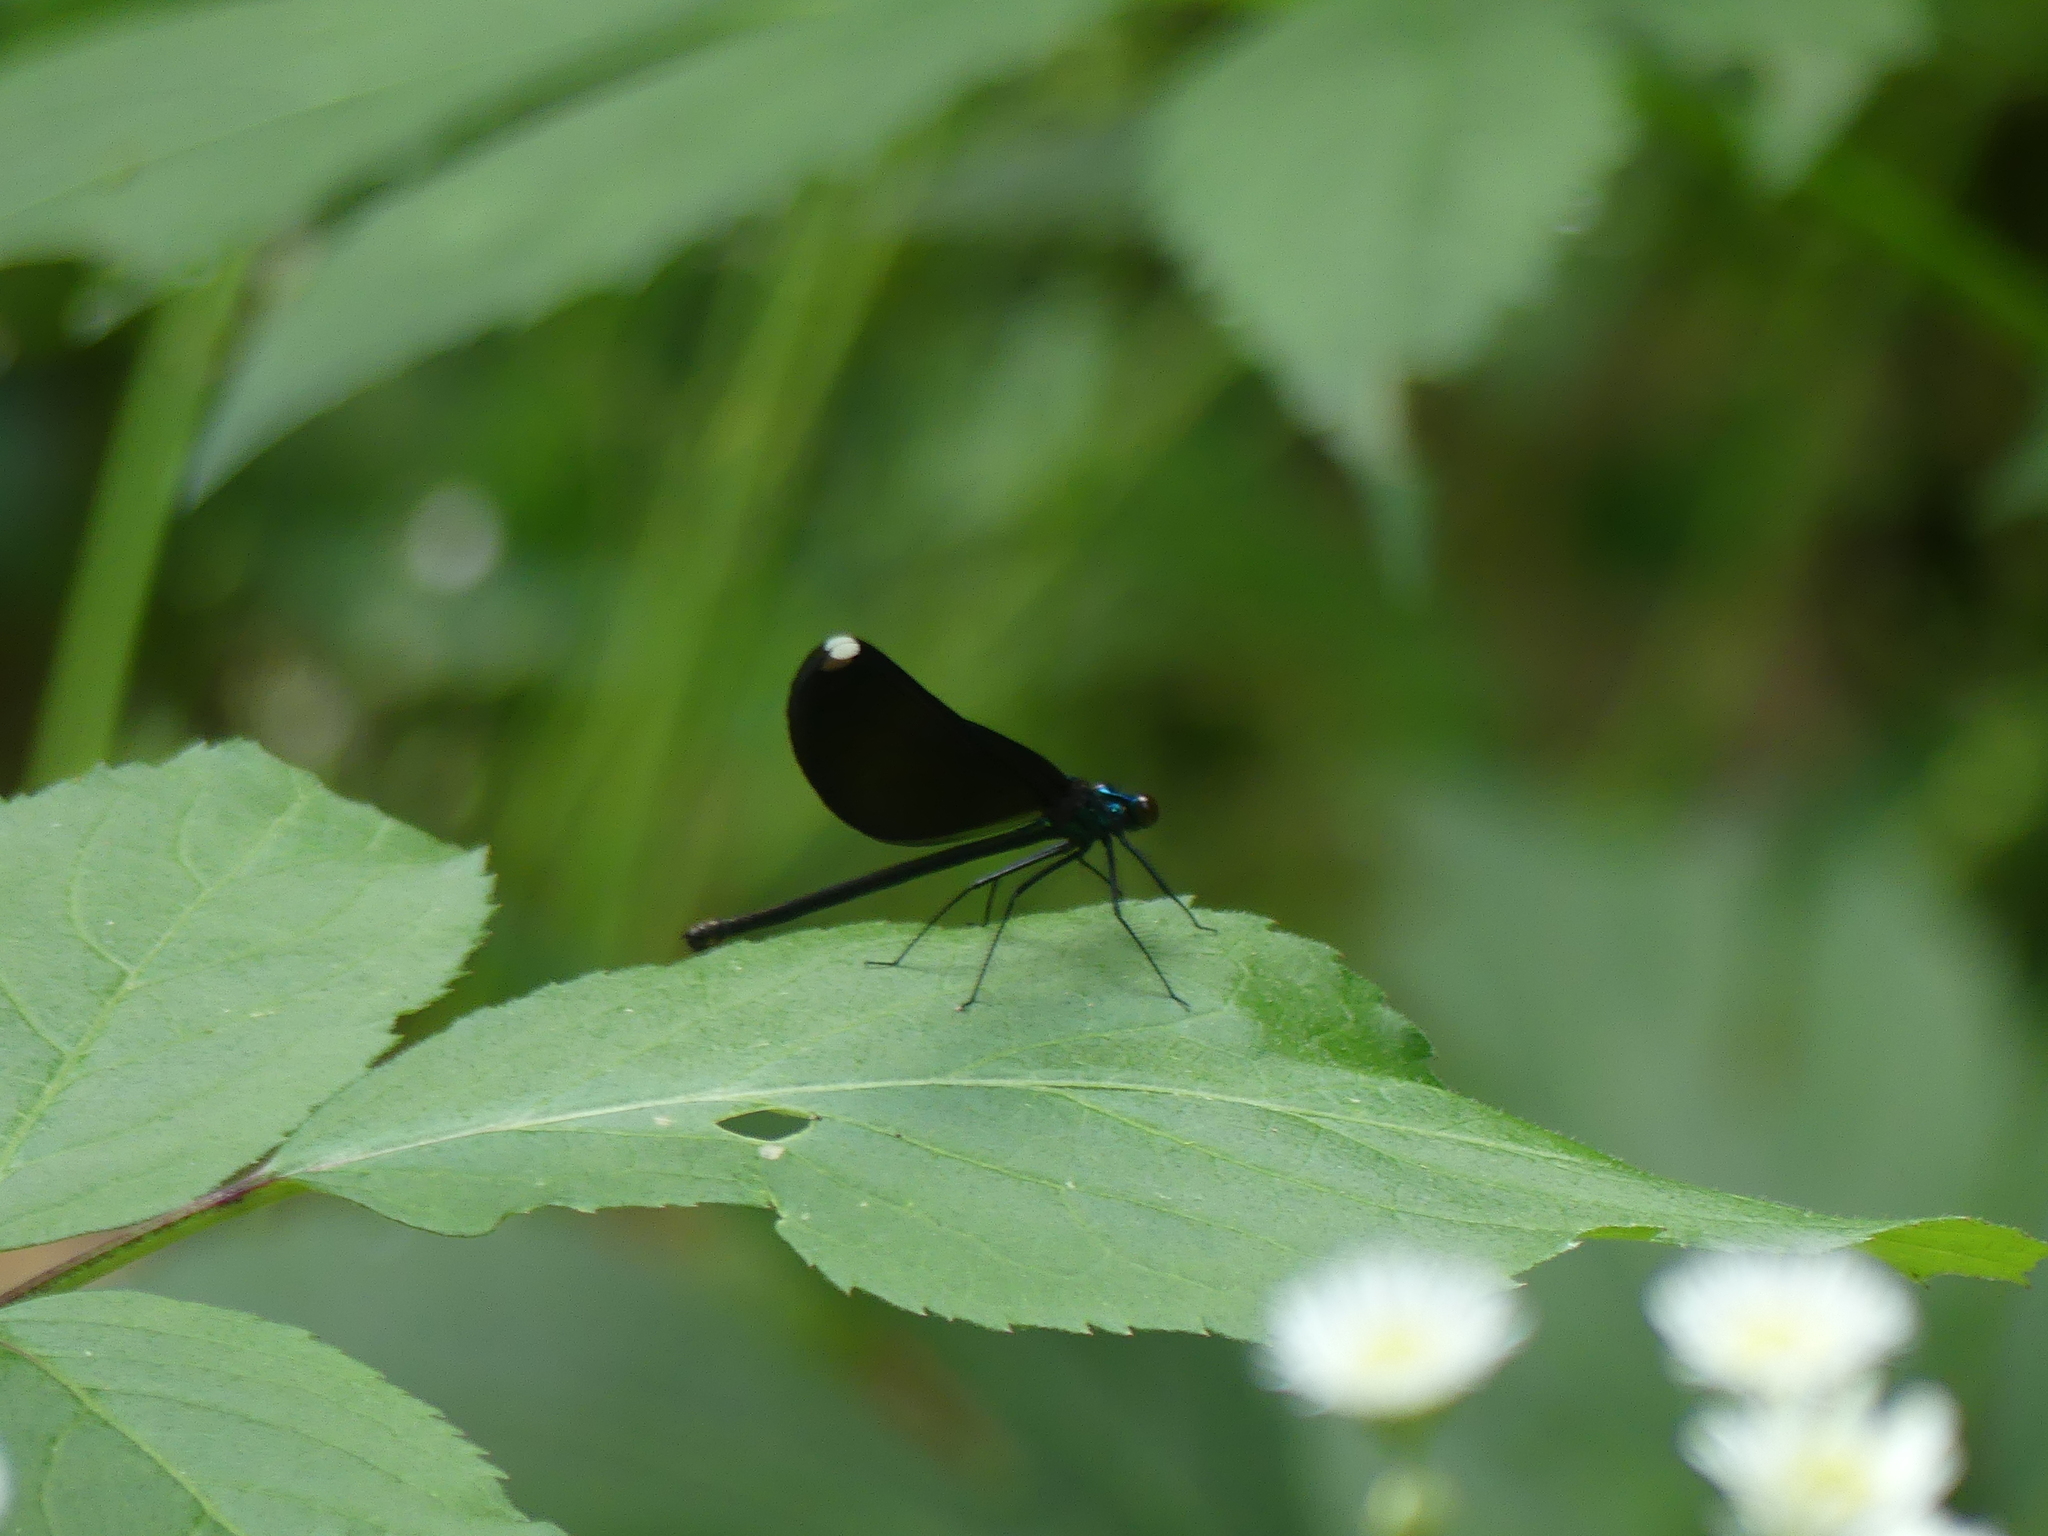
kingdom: Animalia
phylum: Arthropoda
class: Insecta
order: Odonata
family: Calopterygidae
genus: Calopteryx
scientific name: Calopteryx maculata
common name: Ebony jewelwing
